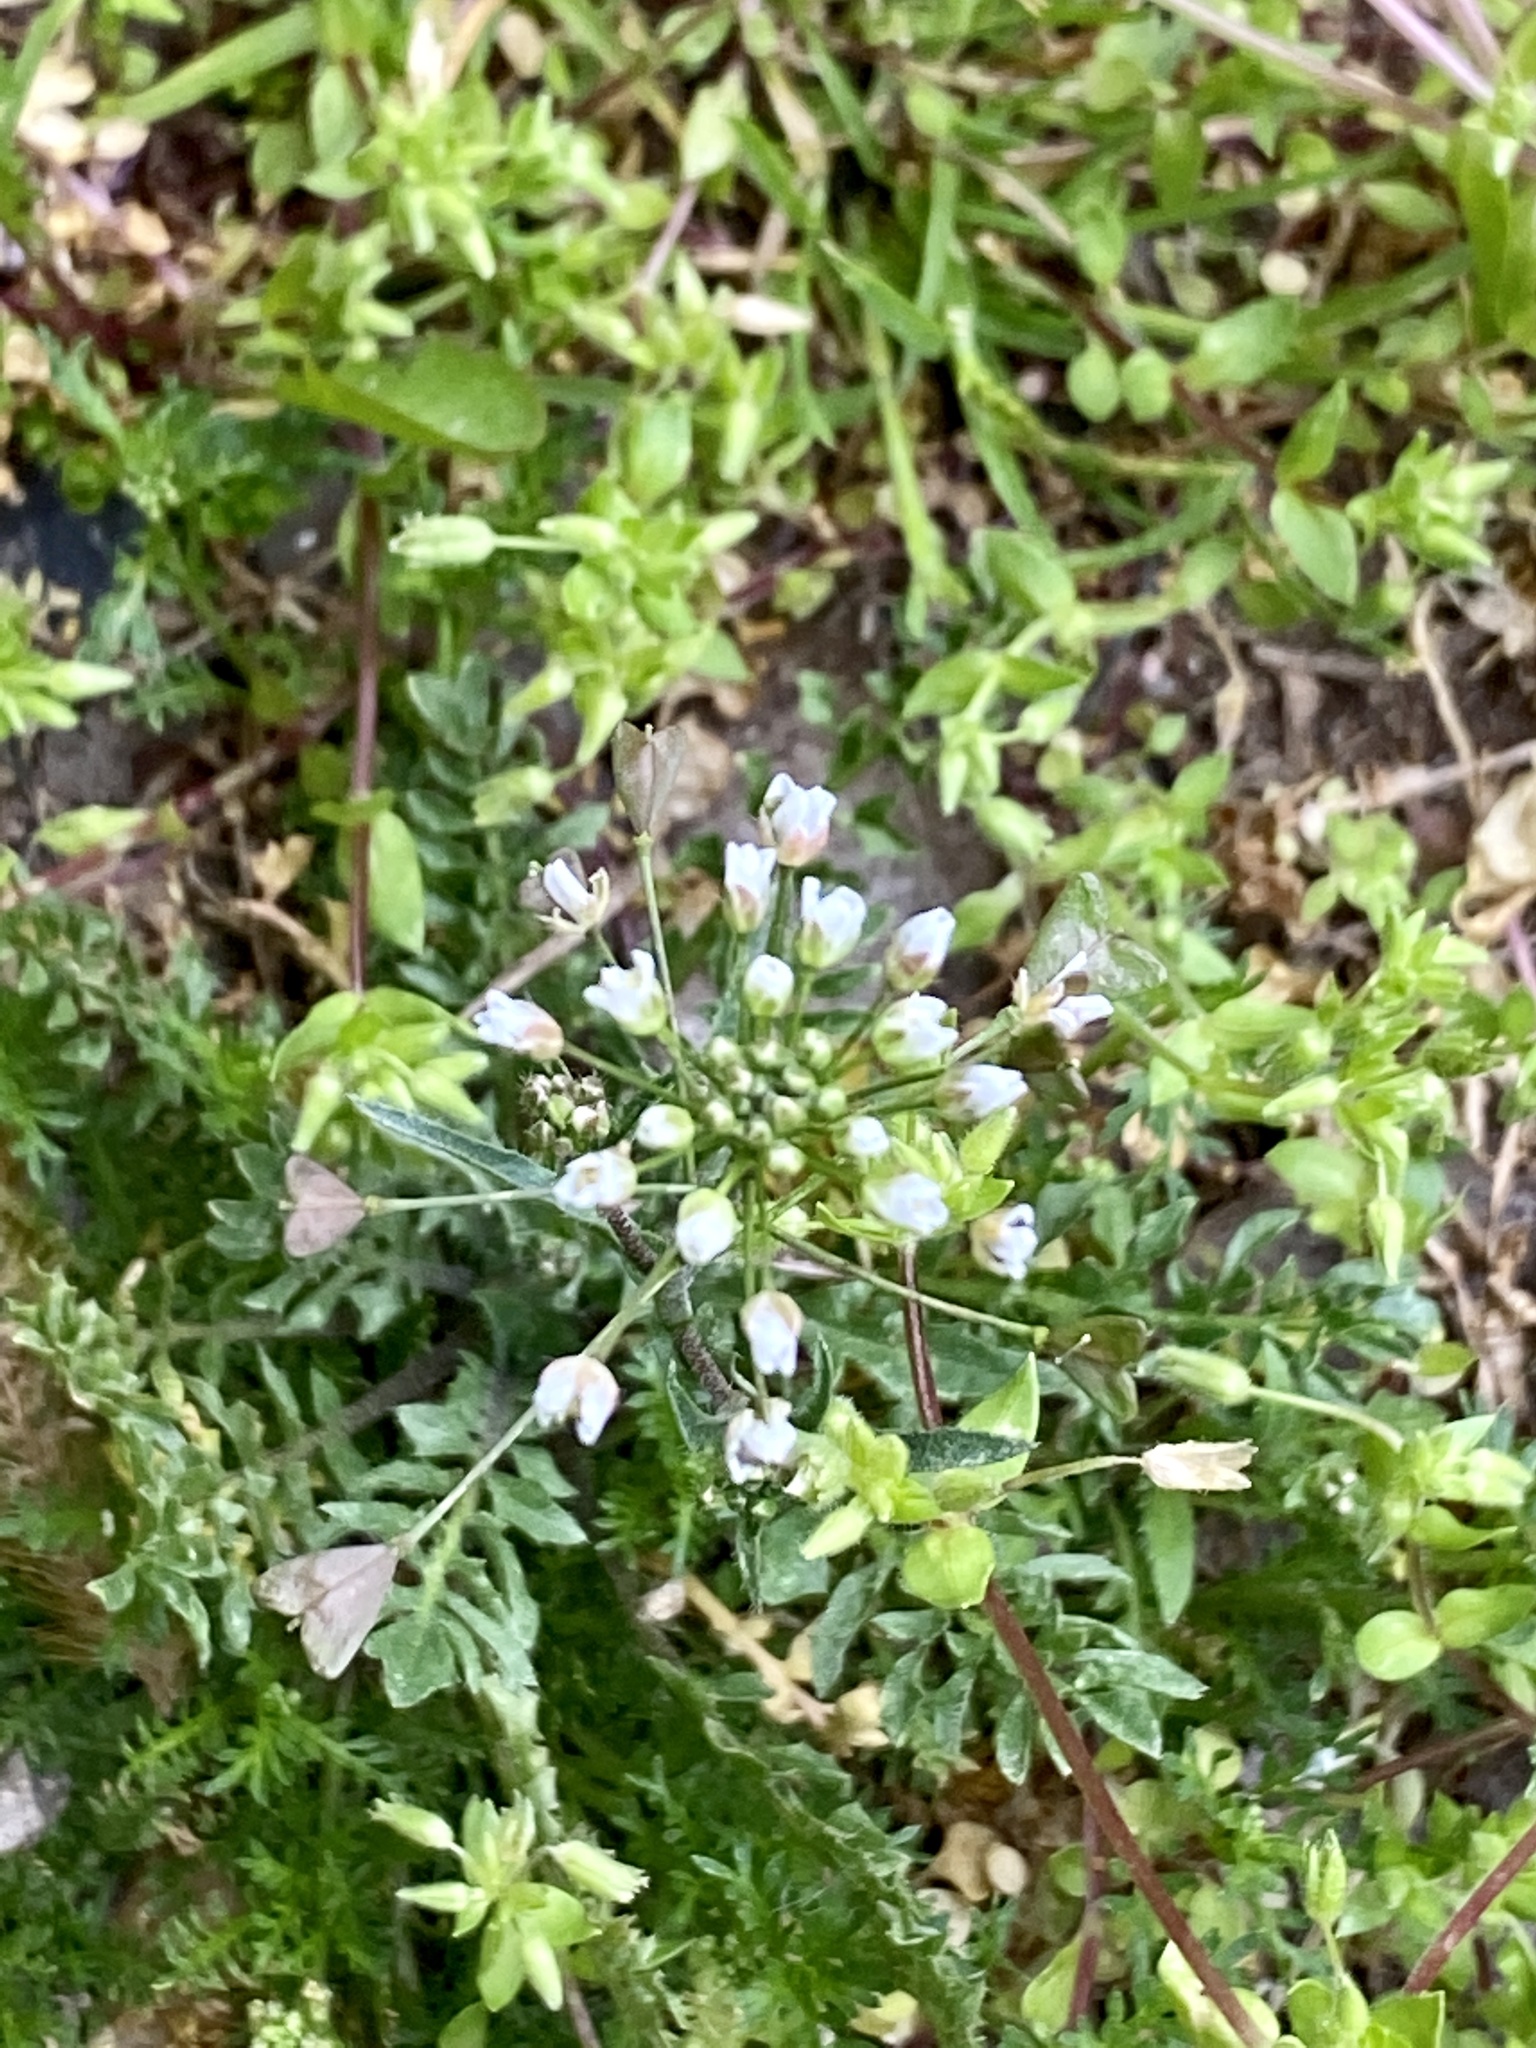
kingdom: Plantae
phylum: Tracheophyta
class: Magnoliopsida
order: Brassicales
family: Brassicaceae
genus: Capsella
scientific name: Capsella bursa-pastoris
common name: Shepherd's purse
